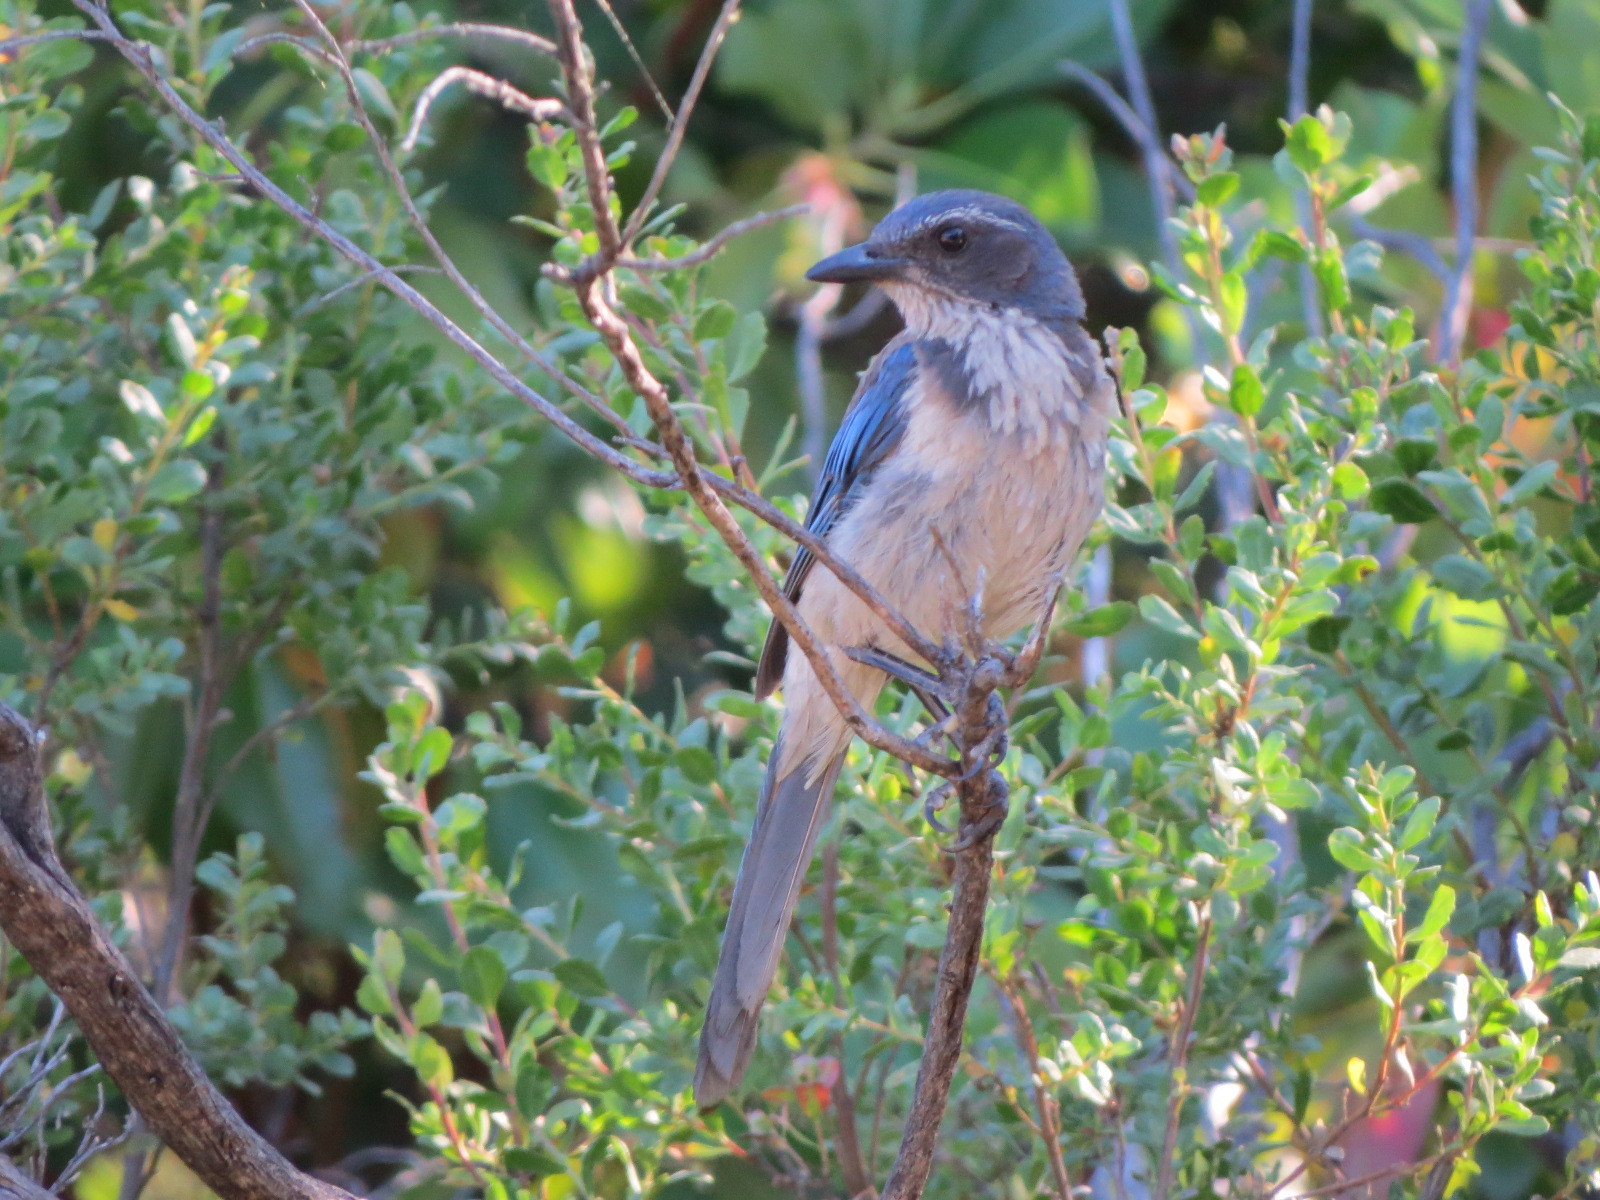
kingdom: Animalia
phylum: Chordata
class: Aves
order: Passeriformes
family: Corvidae
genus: Aphelocoma
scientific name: Aphelocoma californica
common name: California scrub-jay
